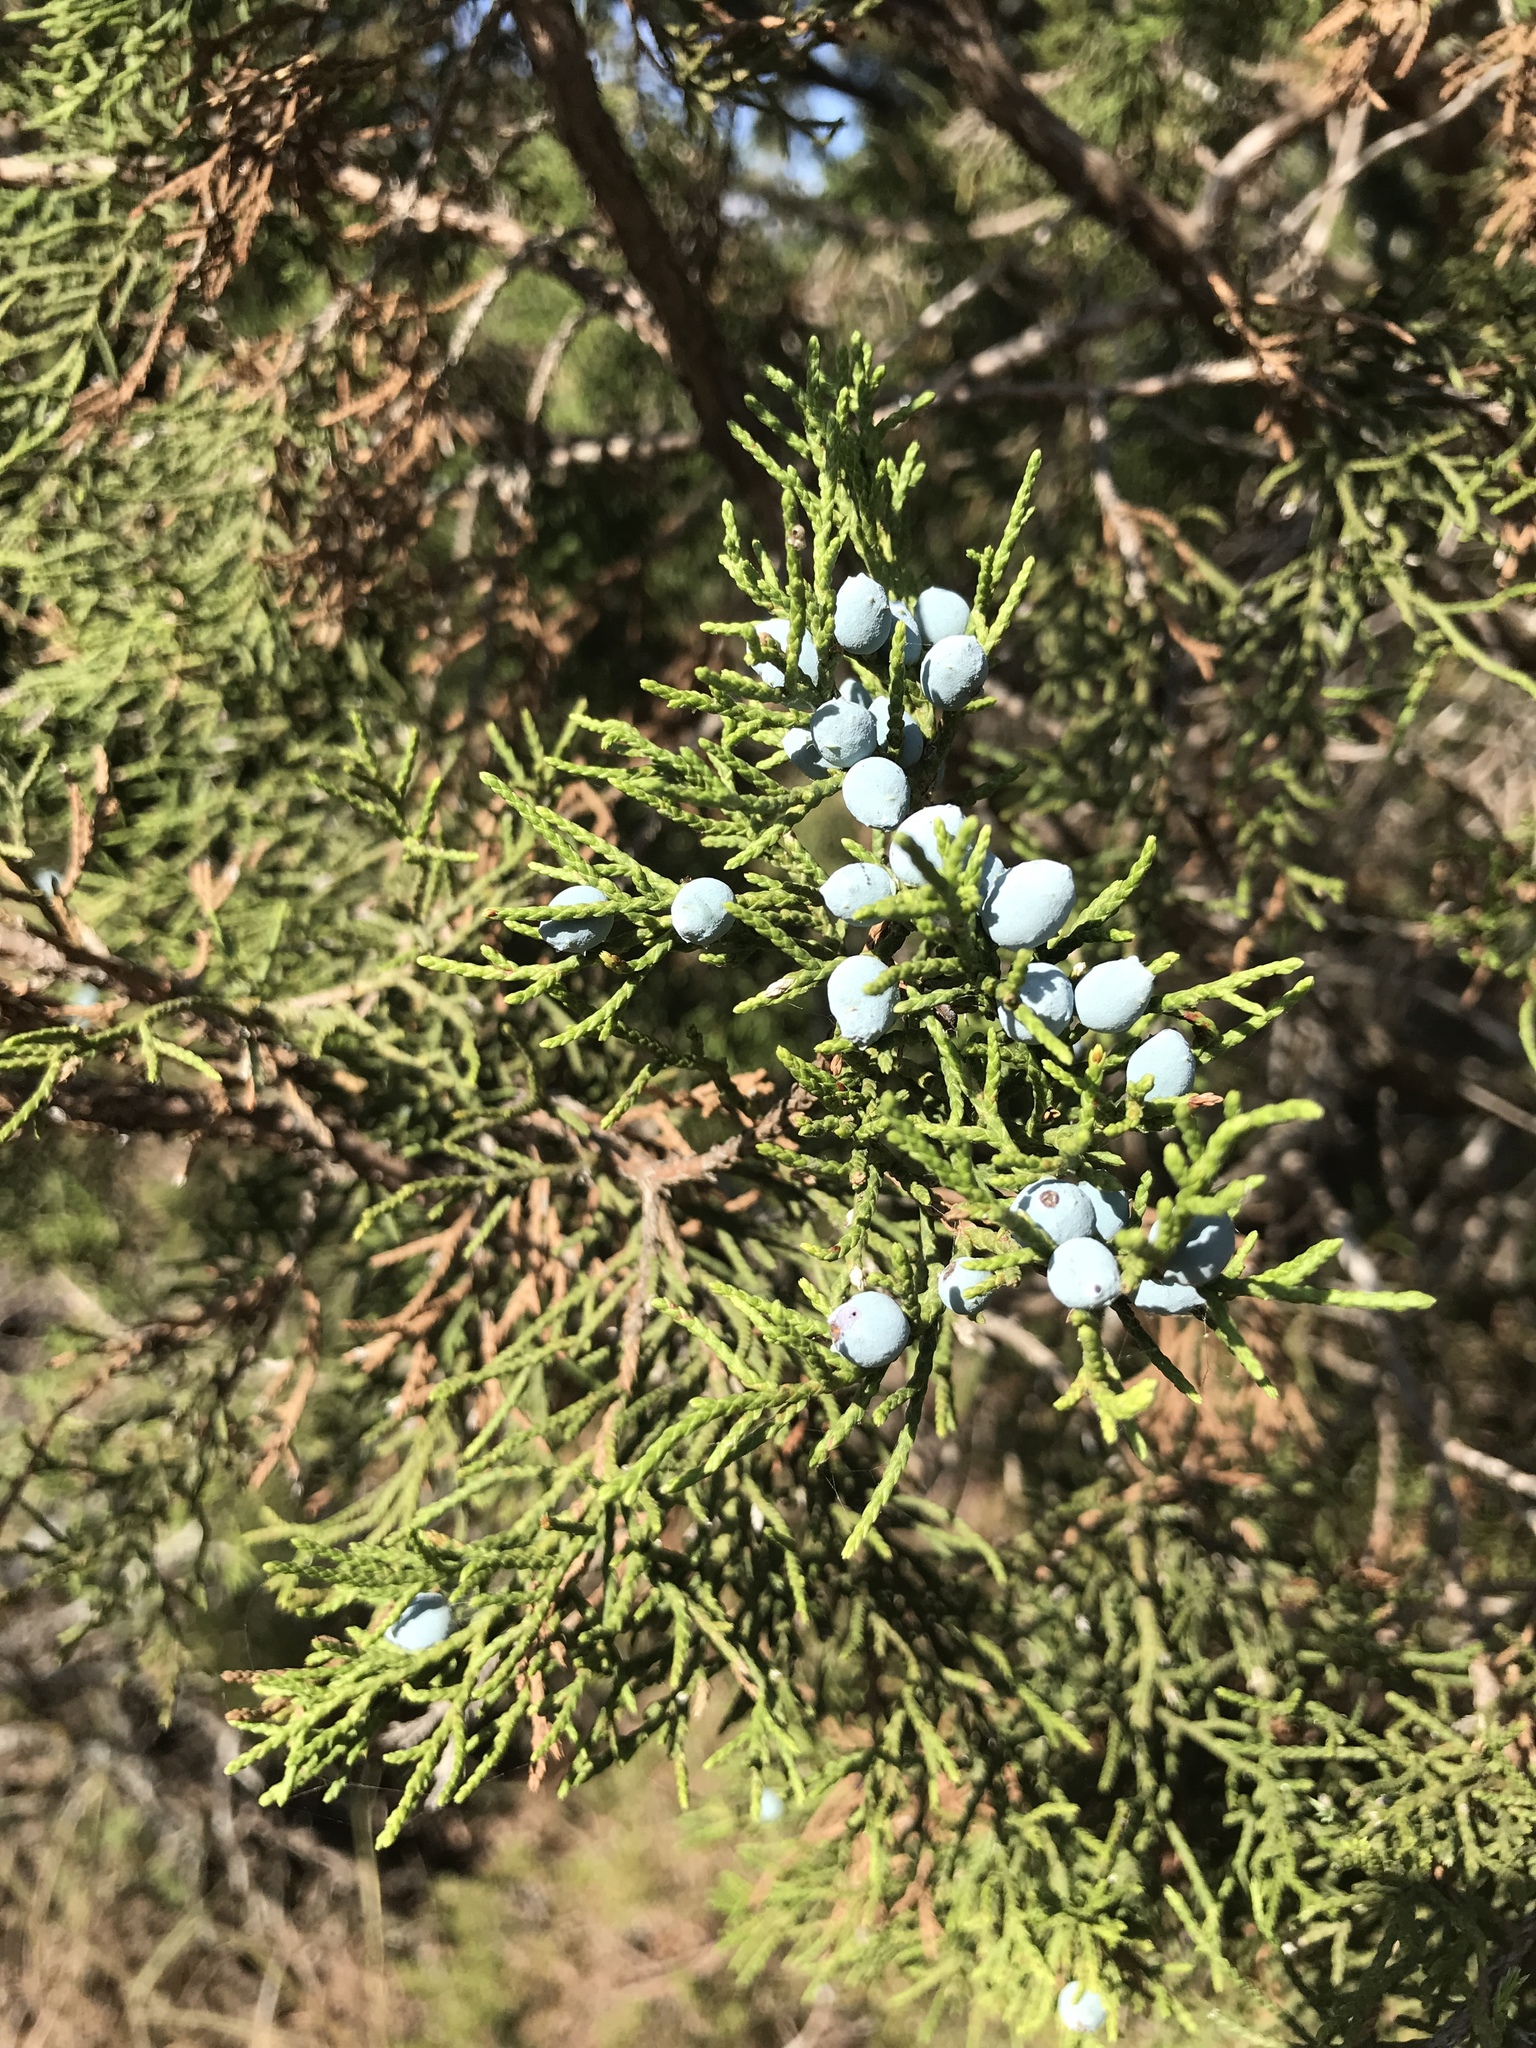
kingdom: Plantae
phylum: Tracheophyta
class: Pinopsida
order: Pinales
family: Cupressaceae
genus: Juniperus
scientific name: Juniperus ashei
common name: Mexican juniper
